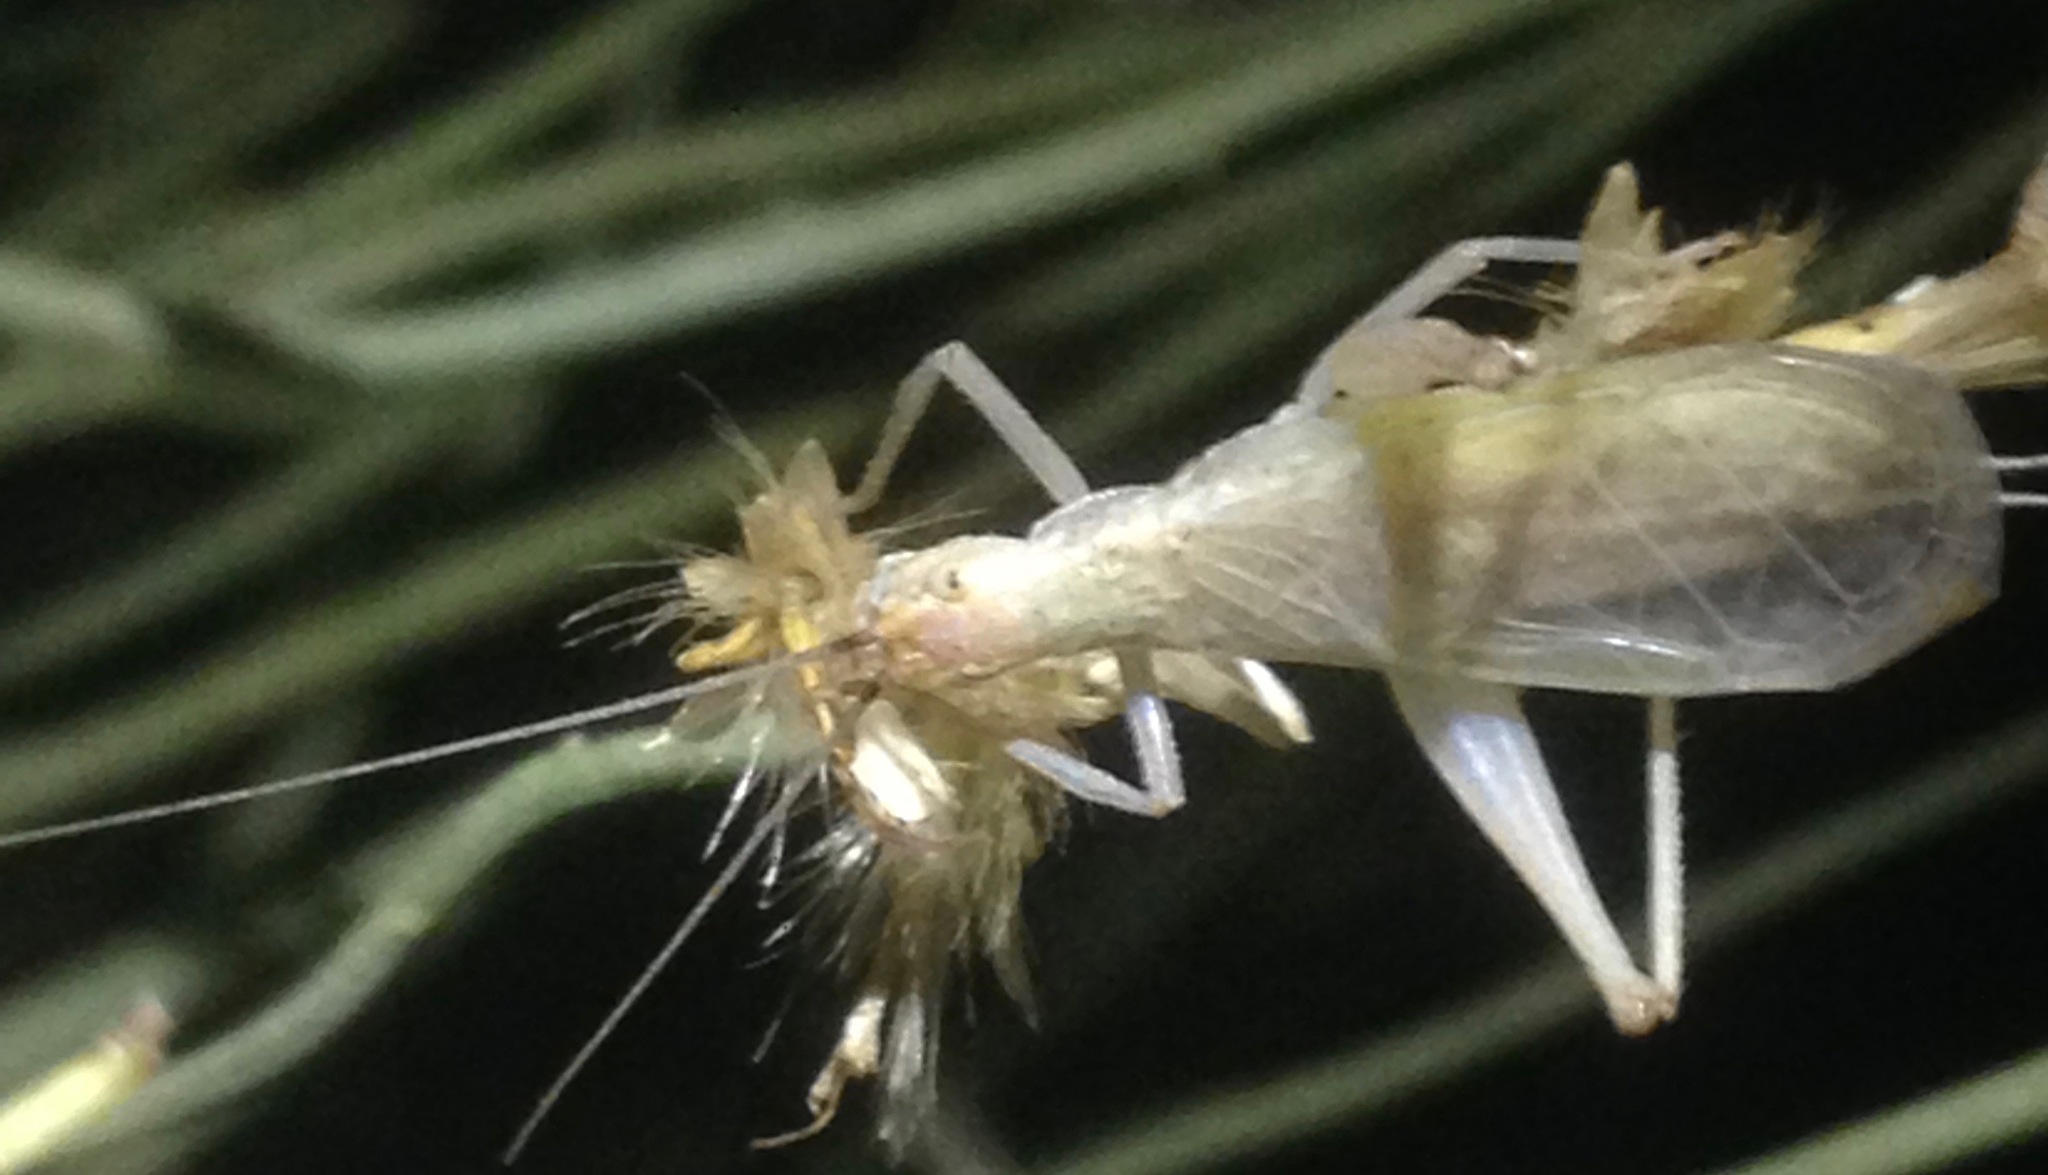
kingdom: Animalia
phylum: Arthropoda
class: Insecta
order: Orthoptera
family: Gryllidae
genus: Oecanthus
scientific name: Oecanthus californicus
